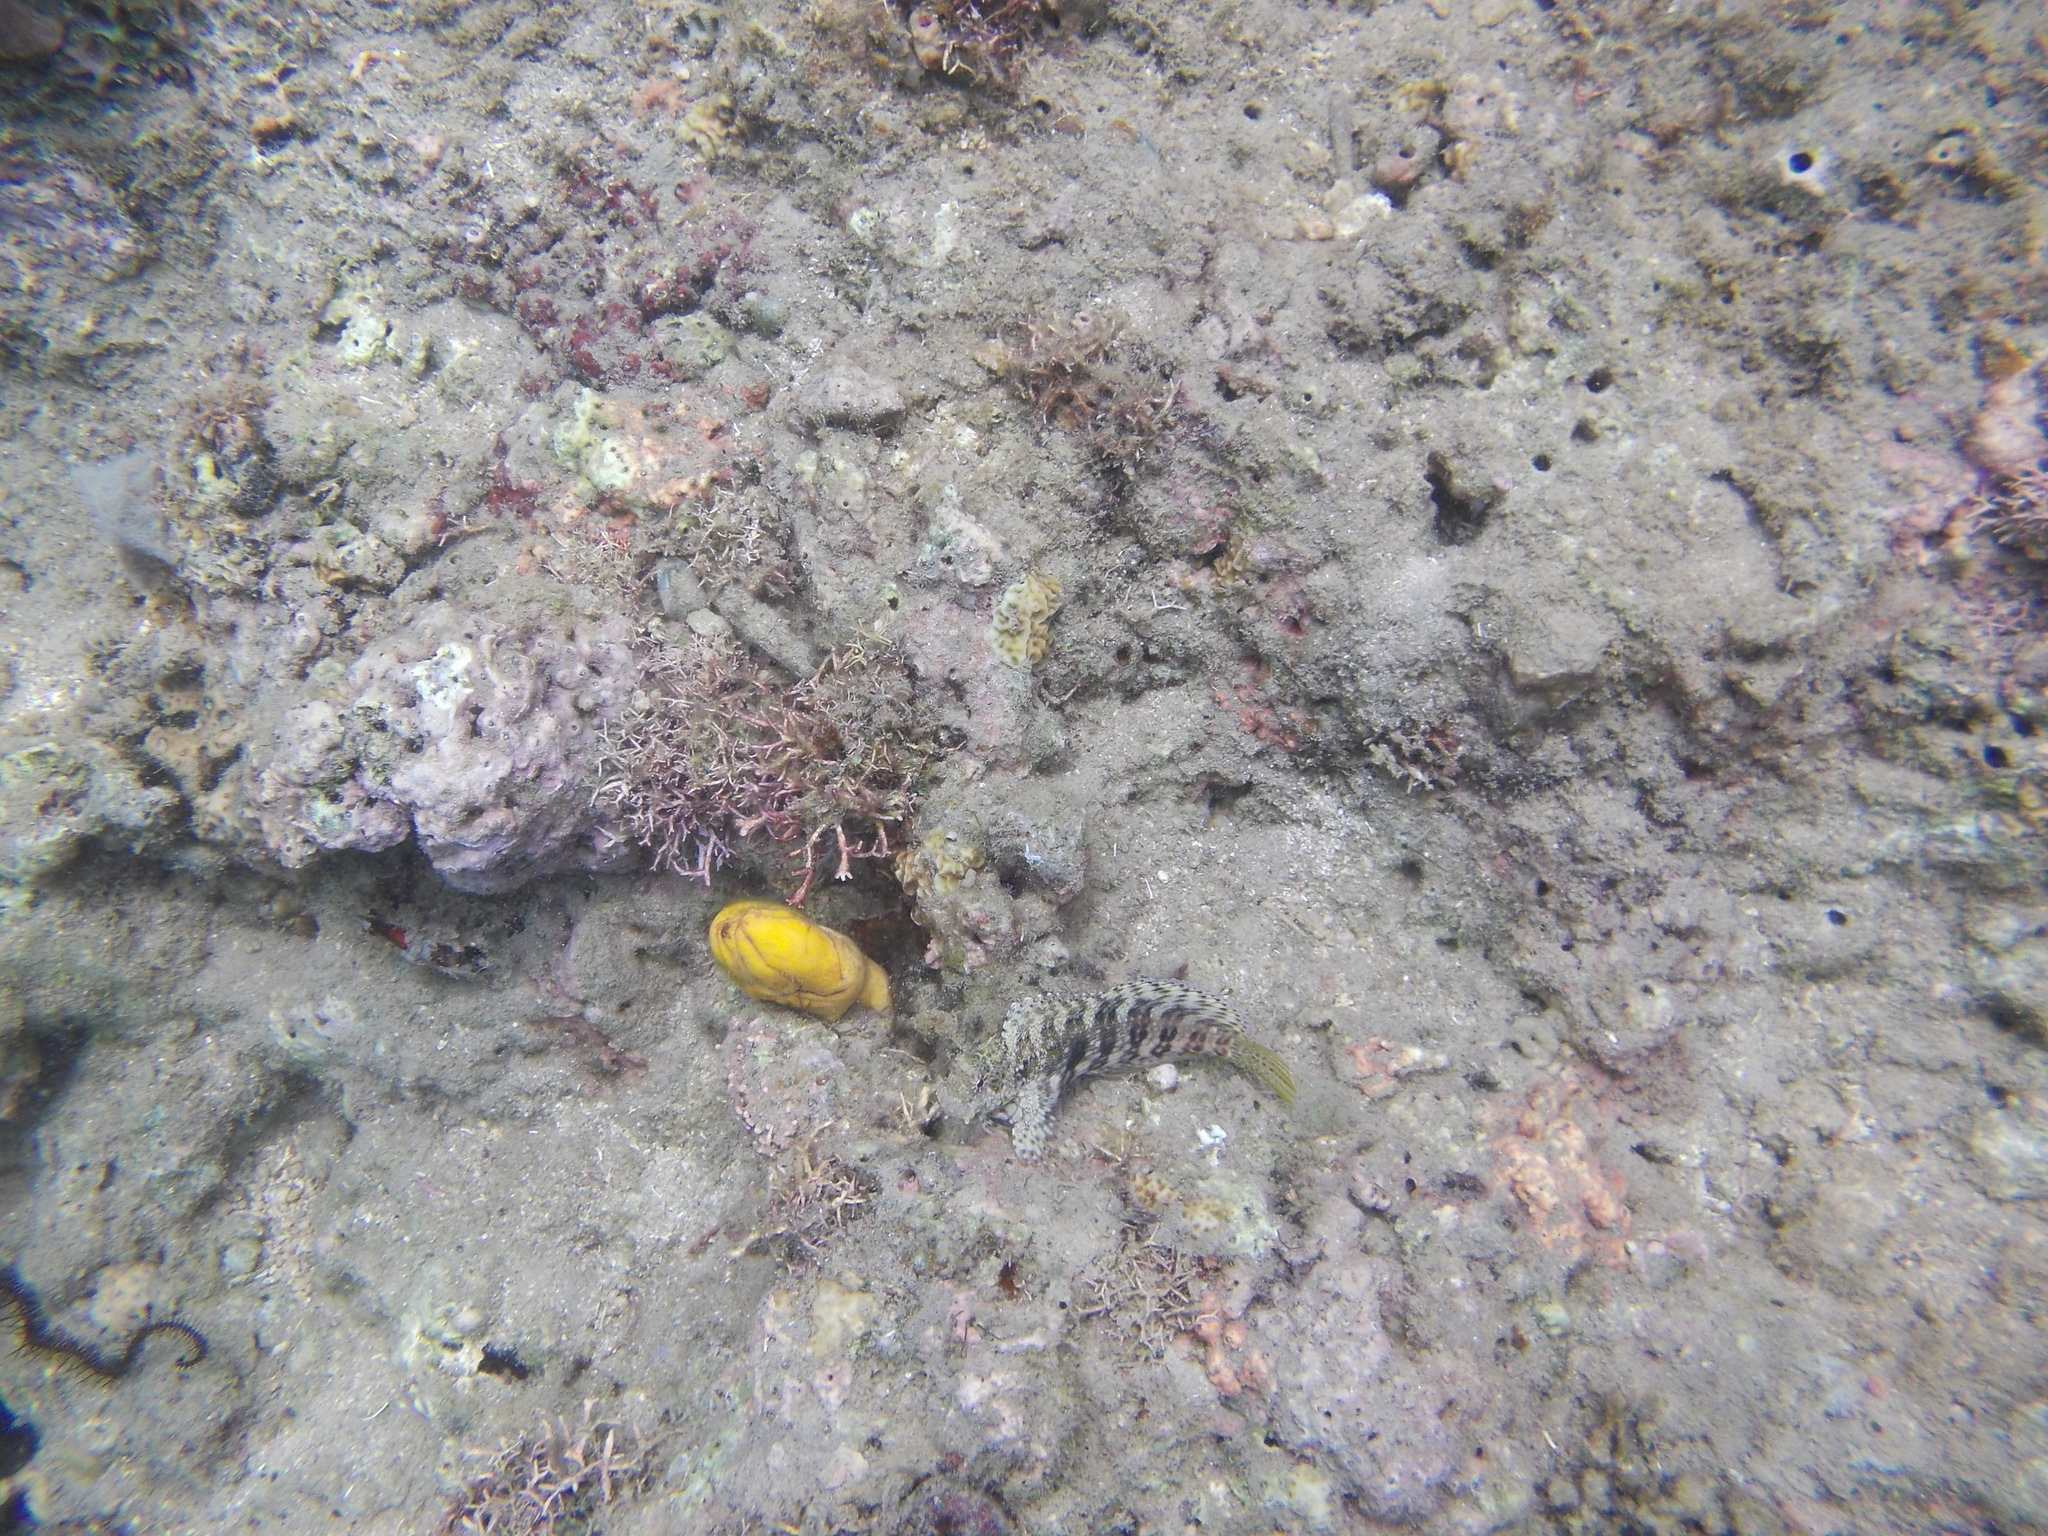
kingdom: Animalia
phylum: Chordata
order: Perciformes
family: Blenniidae
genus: Salarias
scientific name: Salarias fasciatus
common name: Jewelled blenny
